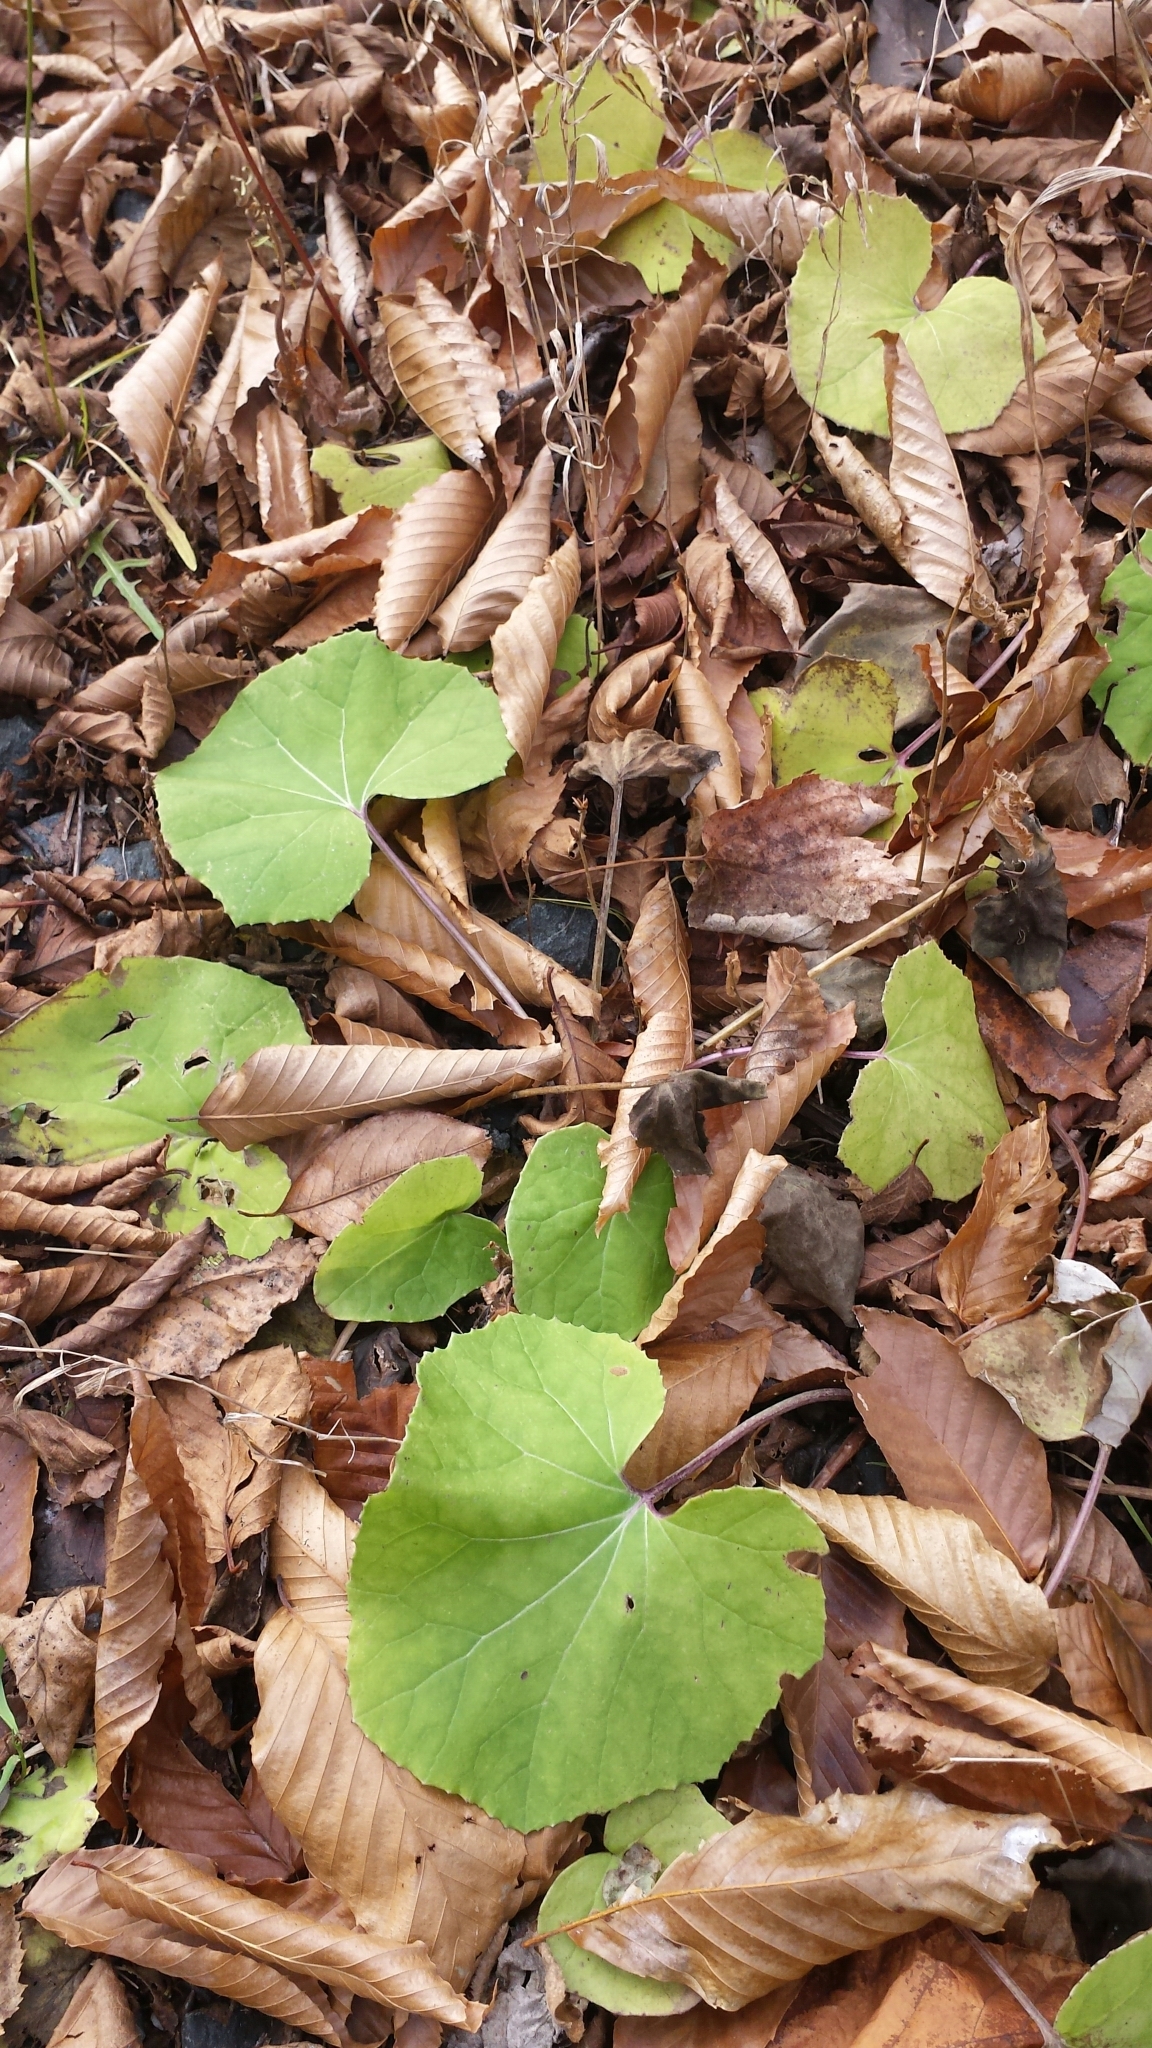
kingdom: Plantae
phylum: Tracheophyta
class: Magnoliopsida
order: Asterales
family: Asteraceae
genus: Tussilago
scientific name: Tussilago farfara
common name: Coltsfoot
